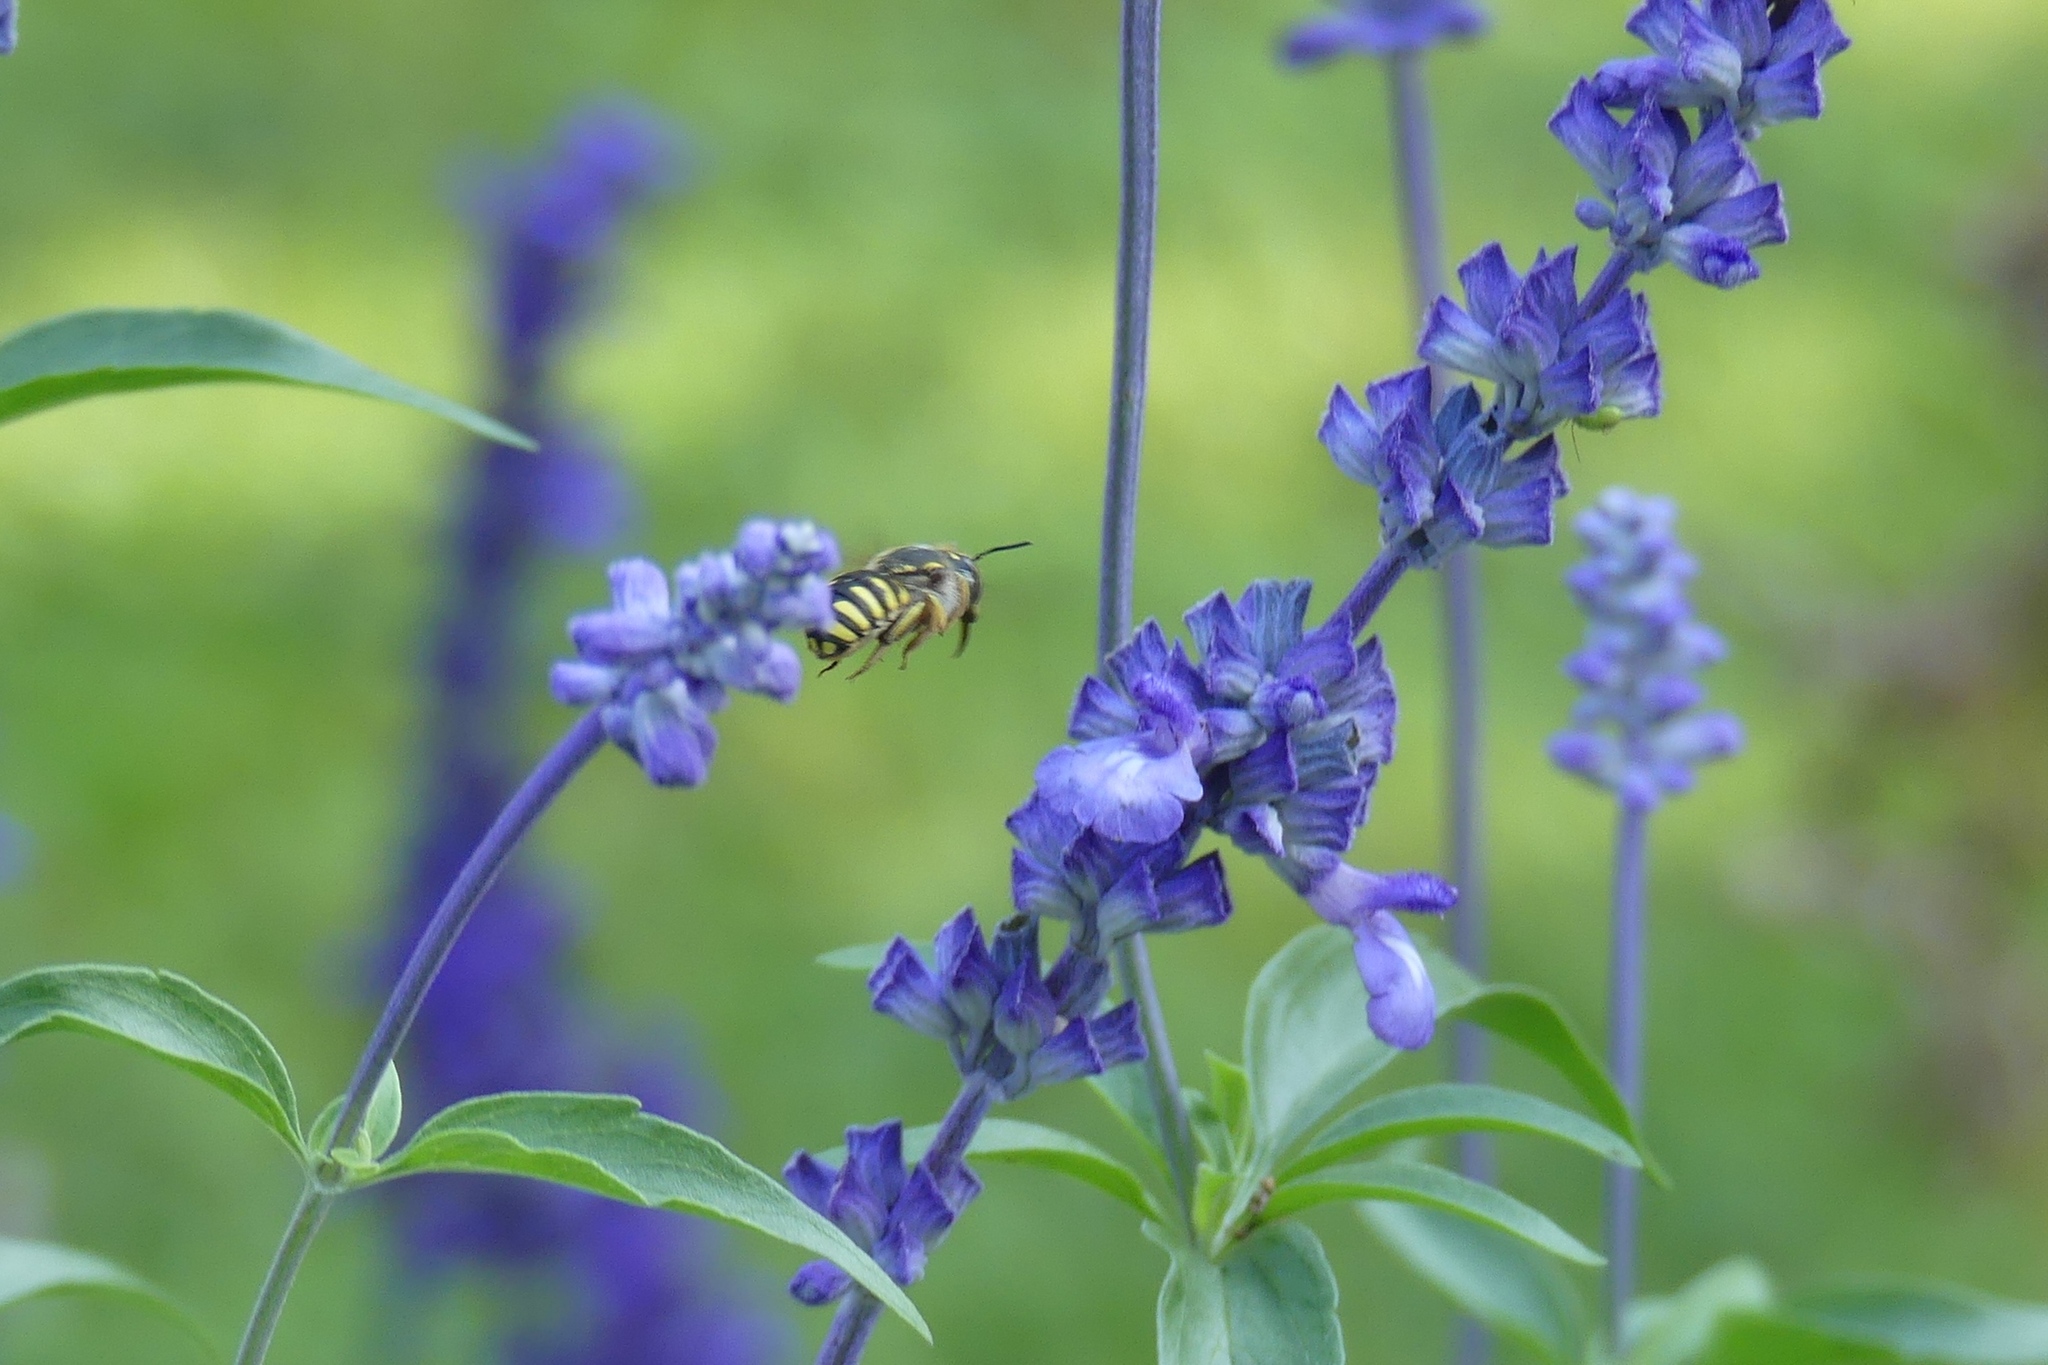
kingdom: Animalia
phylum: Arthropoda
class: Insecta
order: Hymenoptera
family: Megachilidae
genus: Anthidium
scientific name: Anthidium manicatum
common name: Wool carder bee
